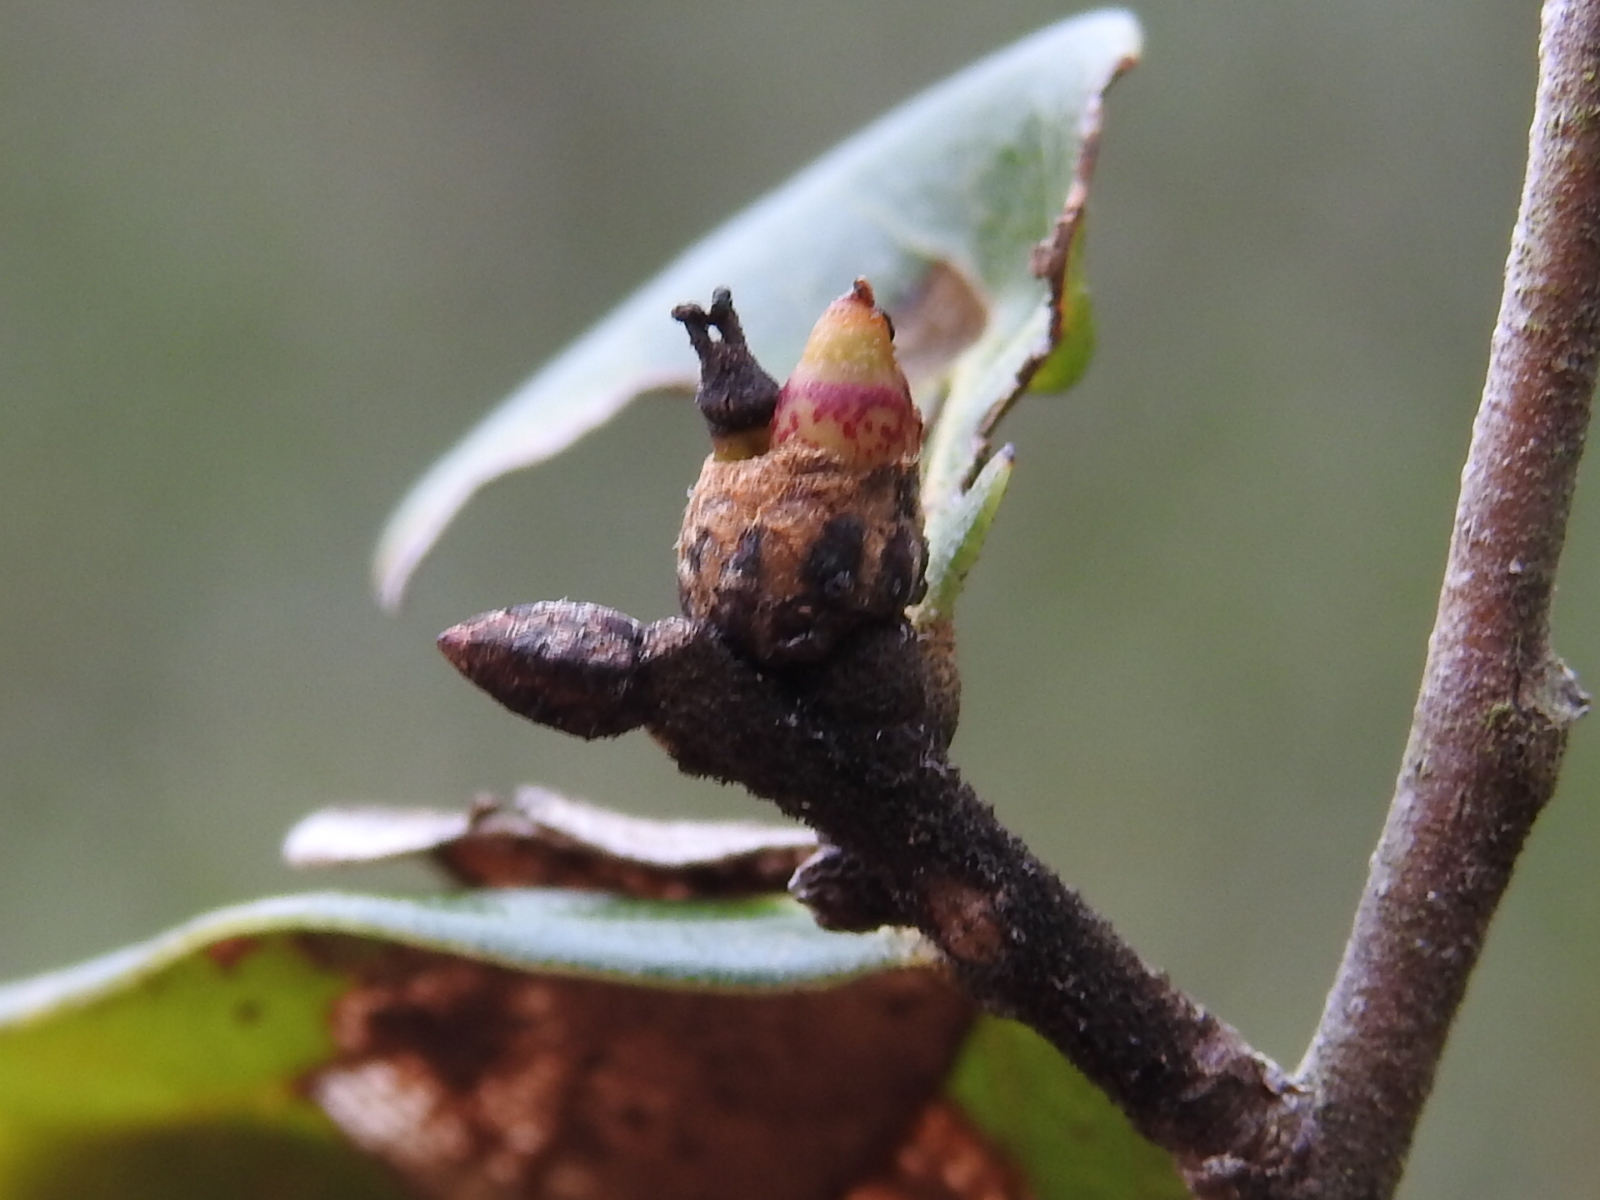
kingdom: Animalia
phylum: Arthropoda
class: Insecta
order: Hymenoptera
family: Cynipidae
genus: Andricus
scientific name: Andricus balanaspis
